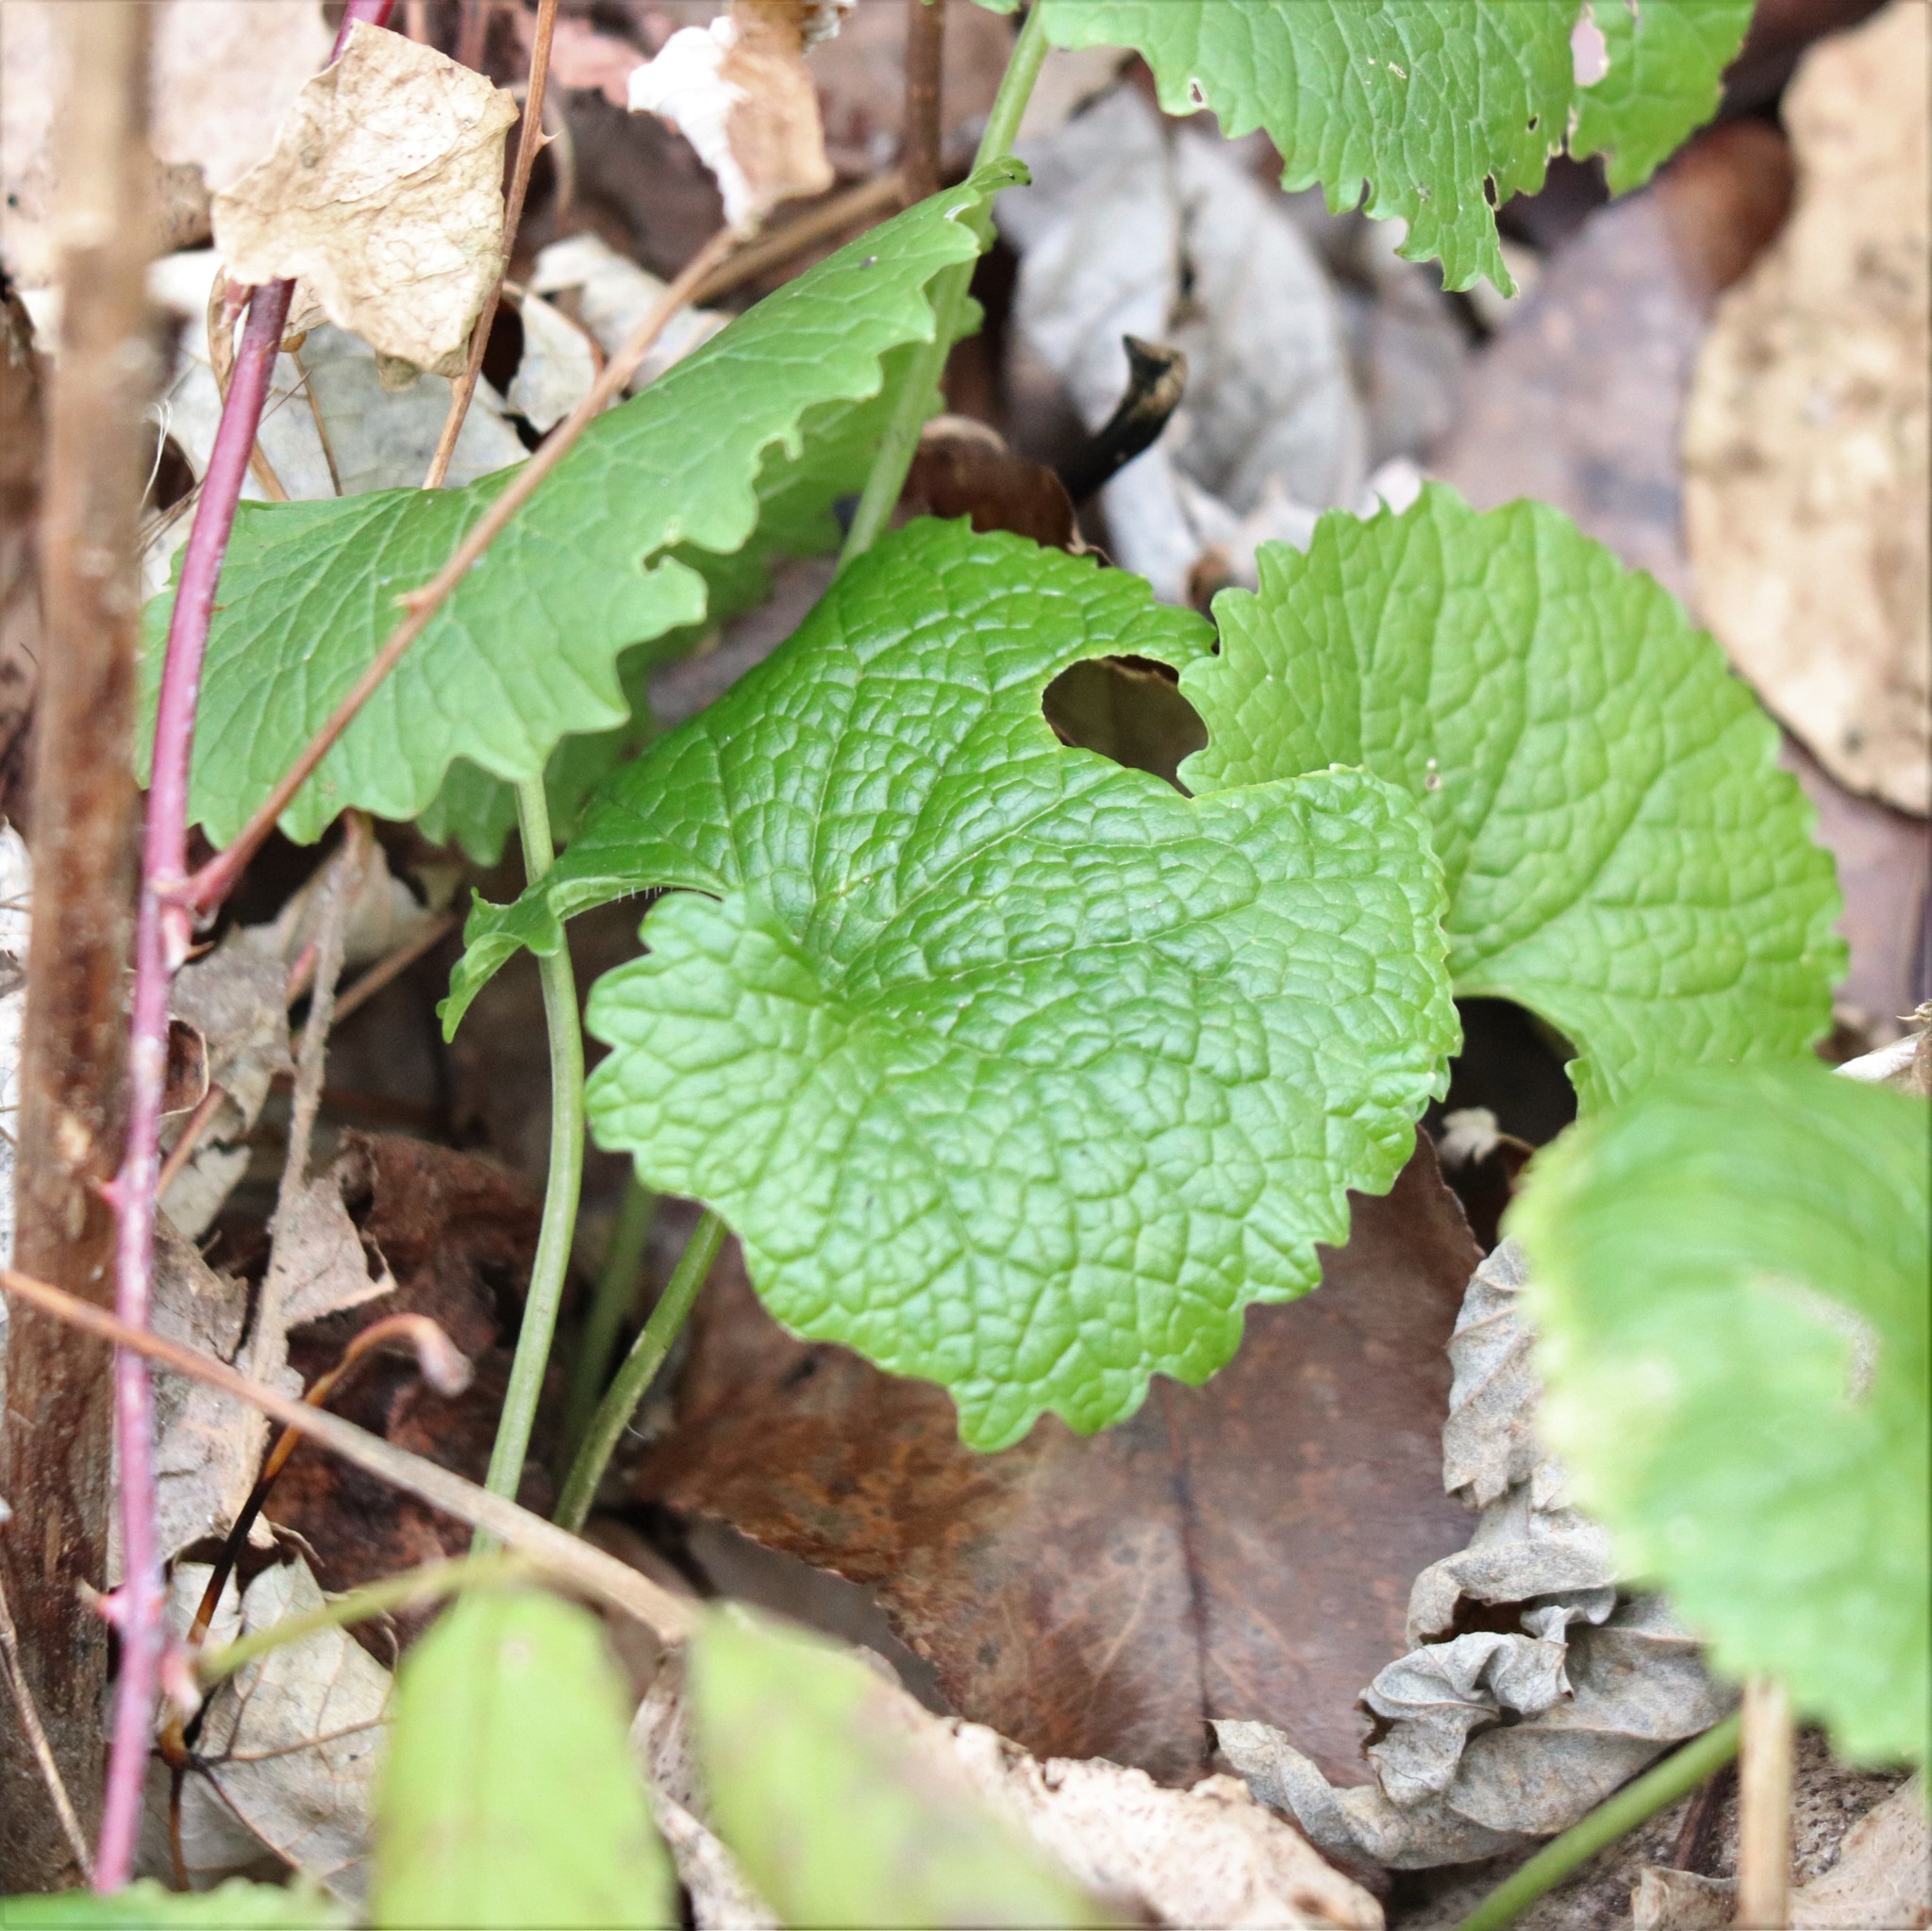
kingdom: Plantae
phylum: Tracheophyta
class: Magnoliopsida
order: Brassicales
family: Brassicaceae
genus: Alliaria
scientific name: Alliaria petiolata
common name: Garlic mustard
